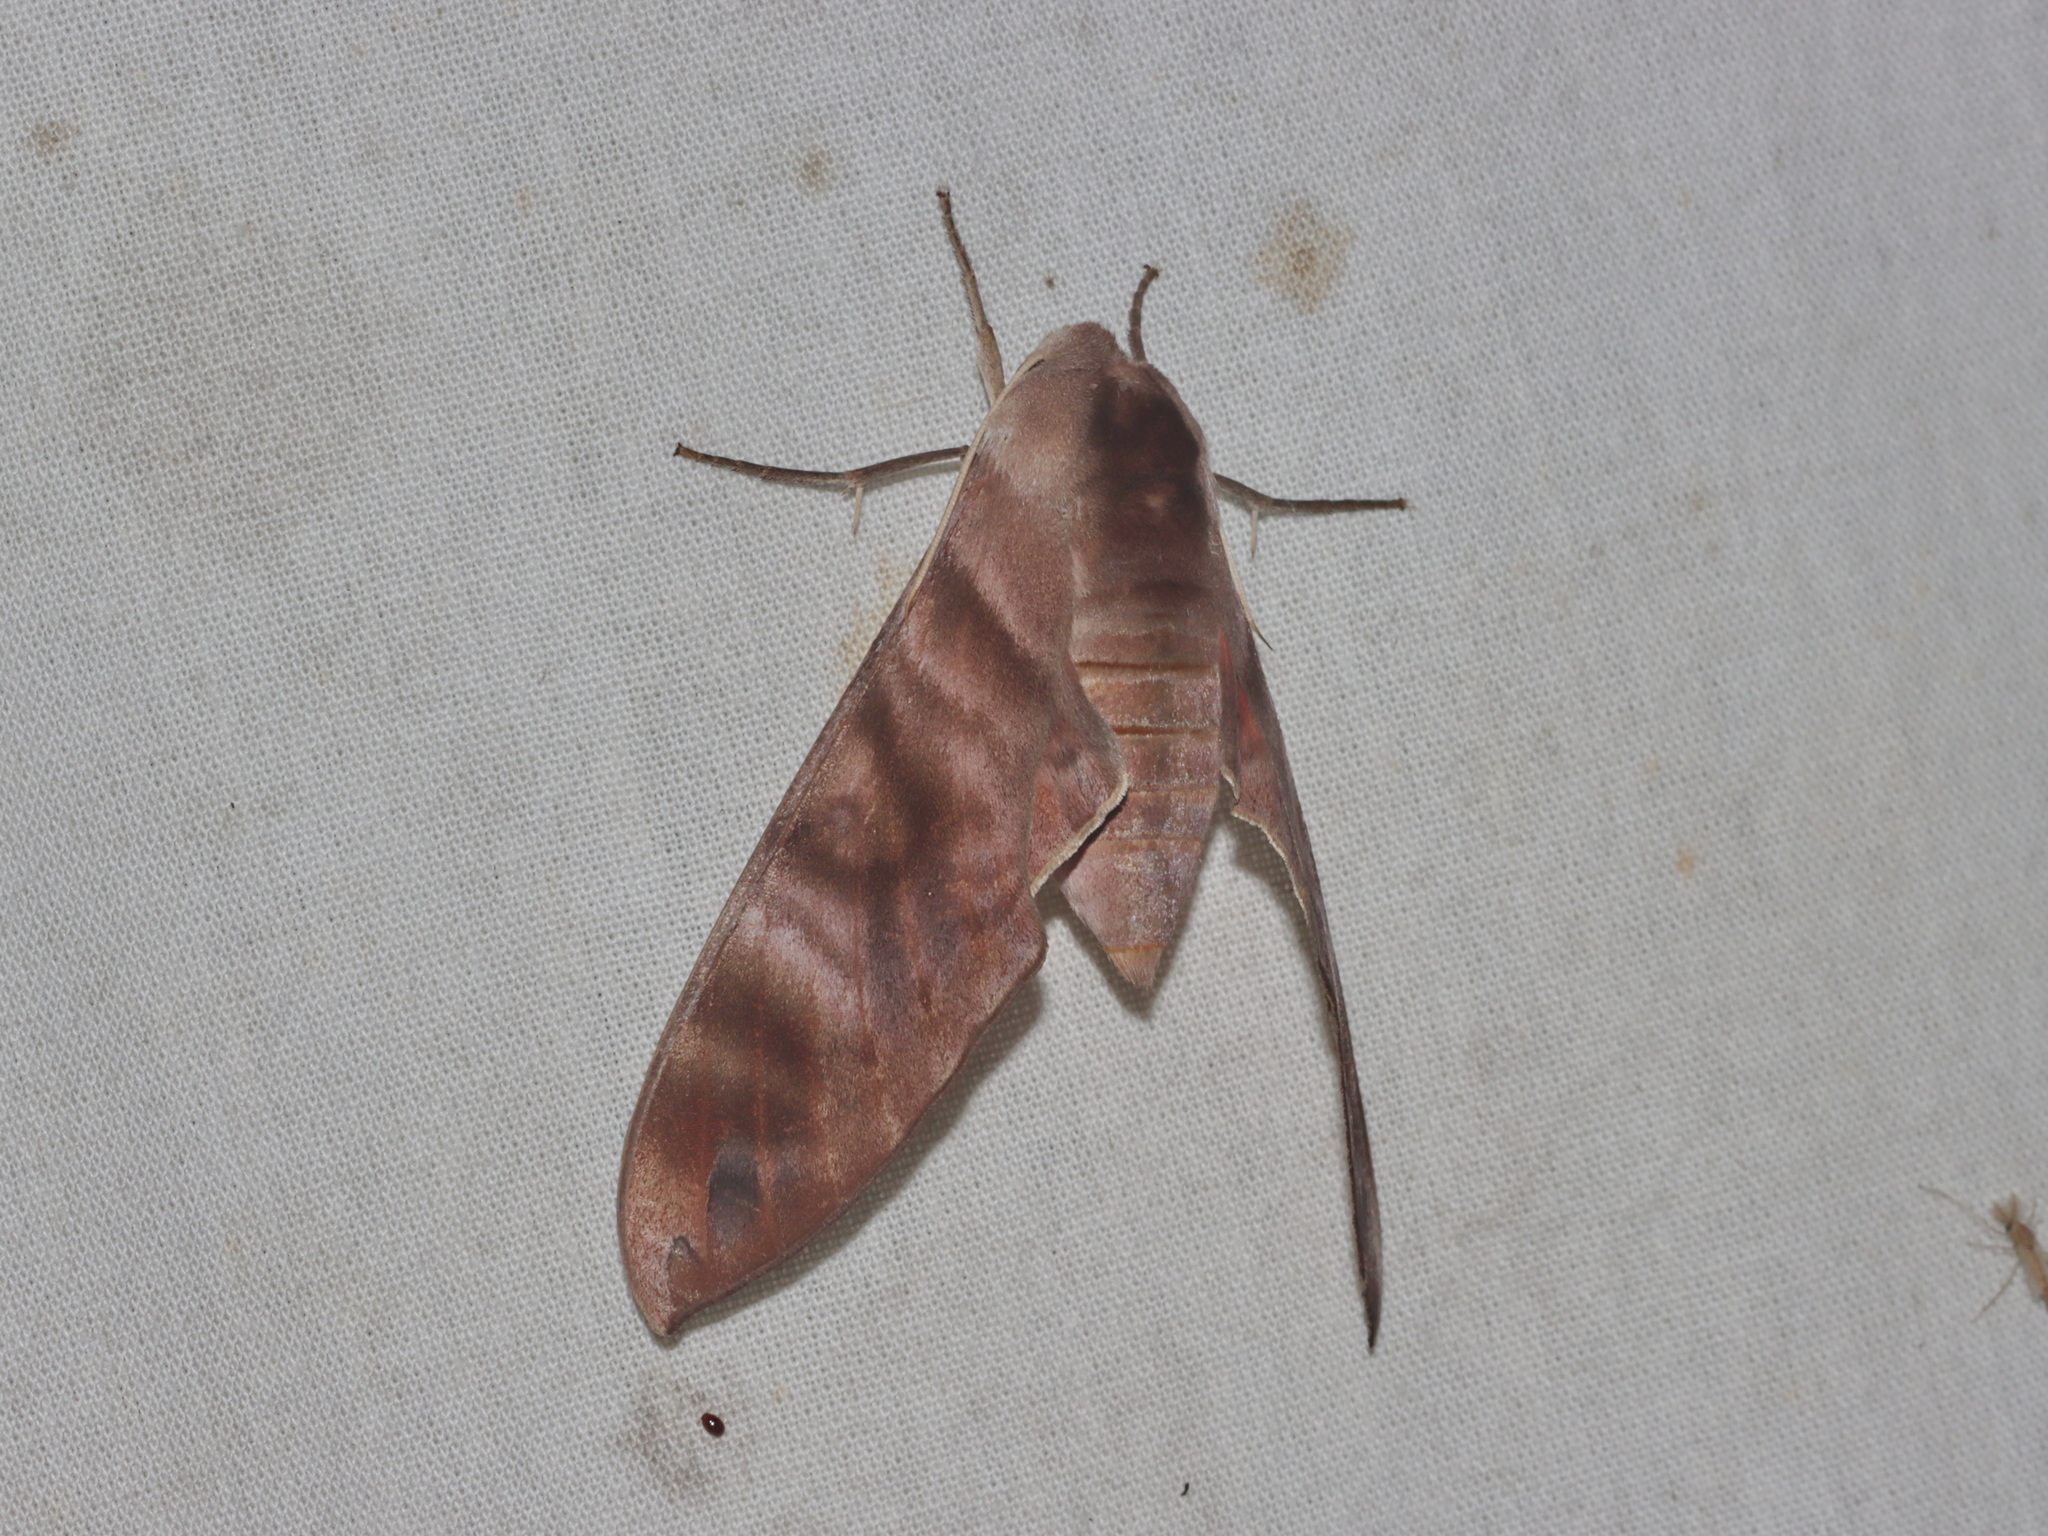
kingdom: Animalia
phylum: Arthropoda
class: Insecta
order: Lepidoptera
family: Sphingidae
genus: Opistoclanis
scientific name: Opistoclanis hawkeri
